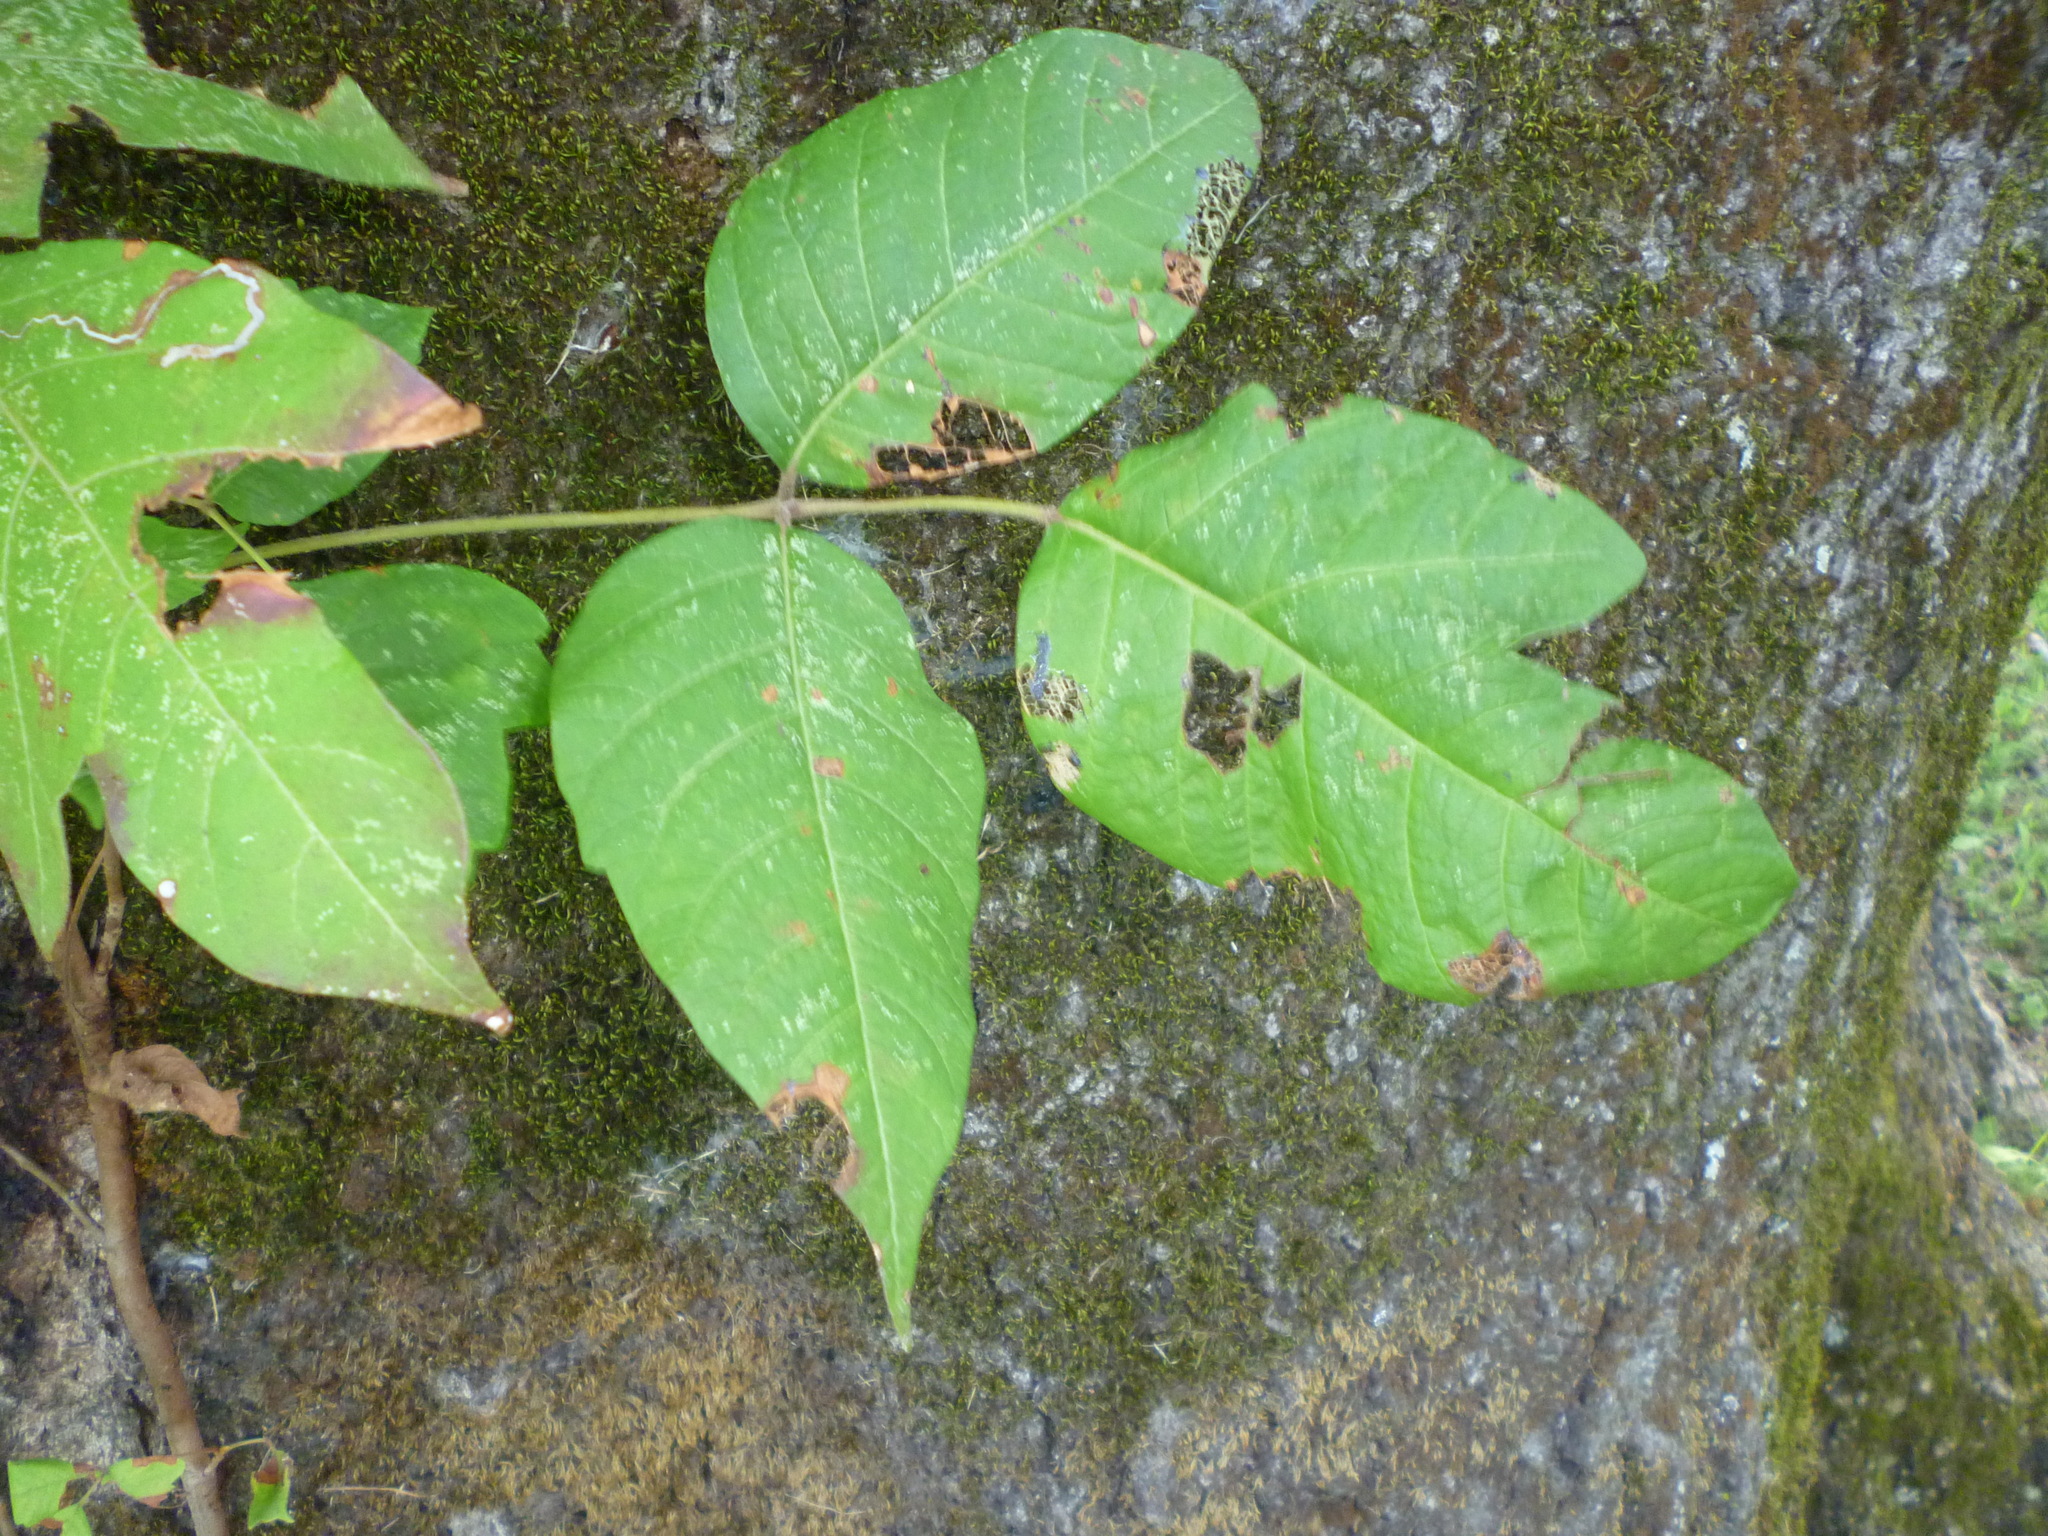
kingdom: Plantae
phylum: Tracheophyta
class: Magnoliopsida
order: Sapindales
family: Anacardiaceae
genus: Toxicodendron
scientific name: Toxicodendron radicans
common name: Poison ivy
